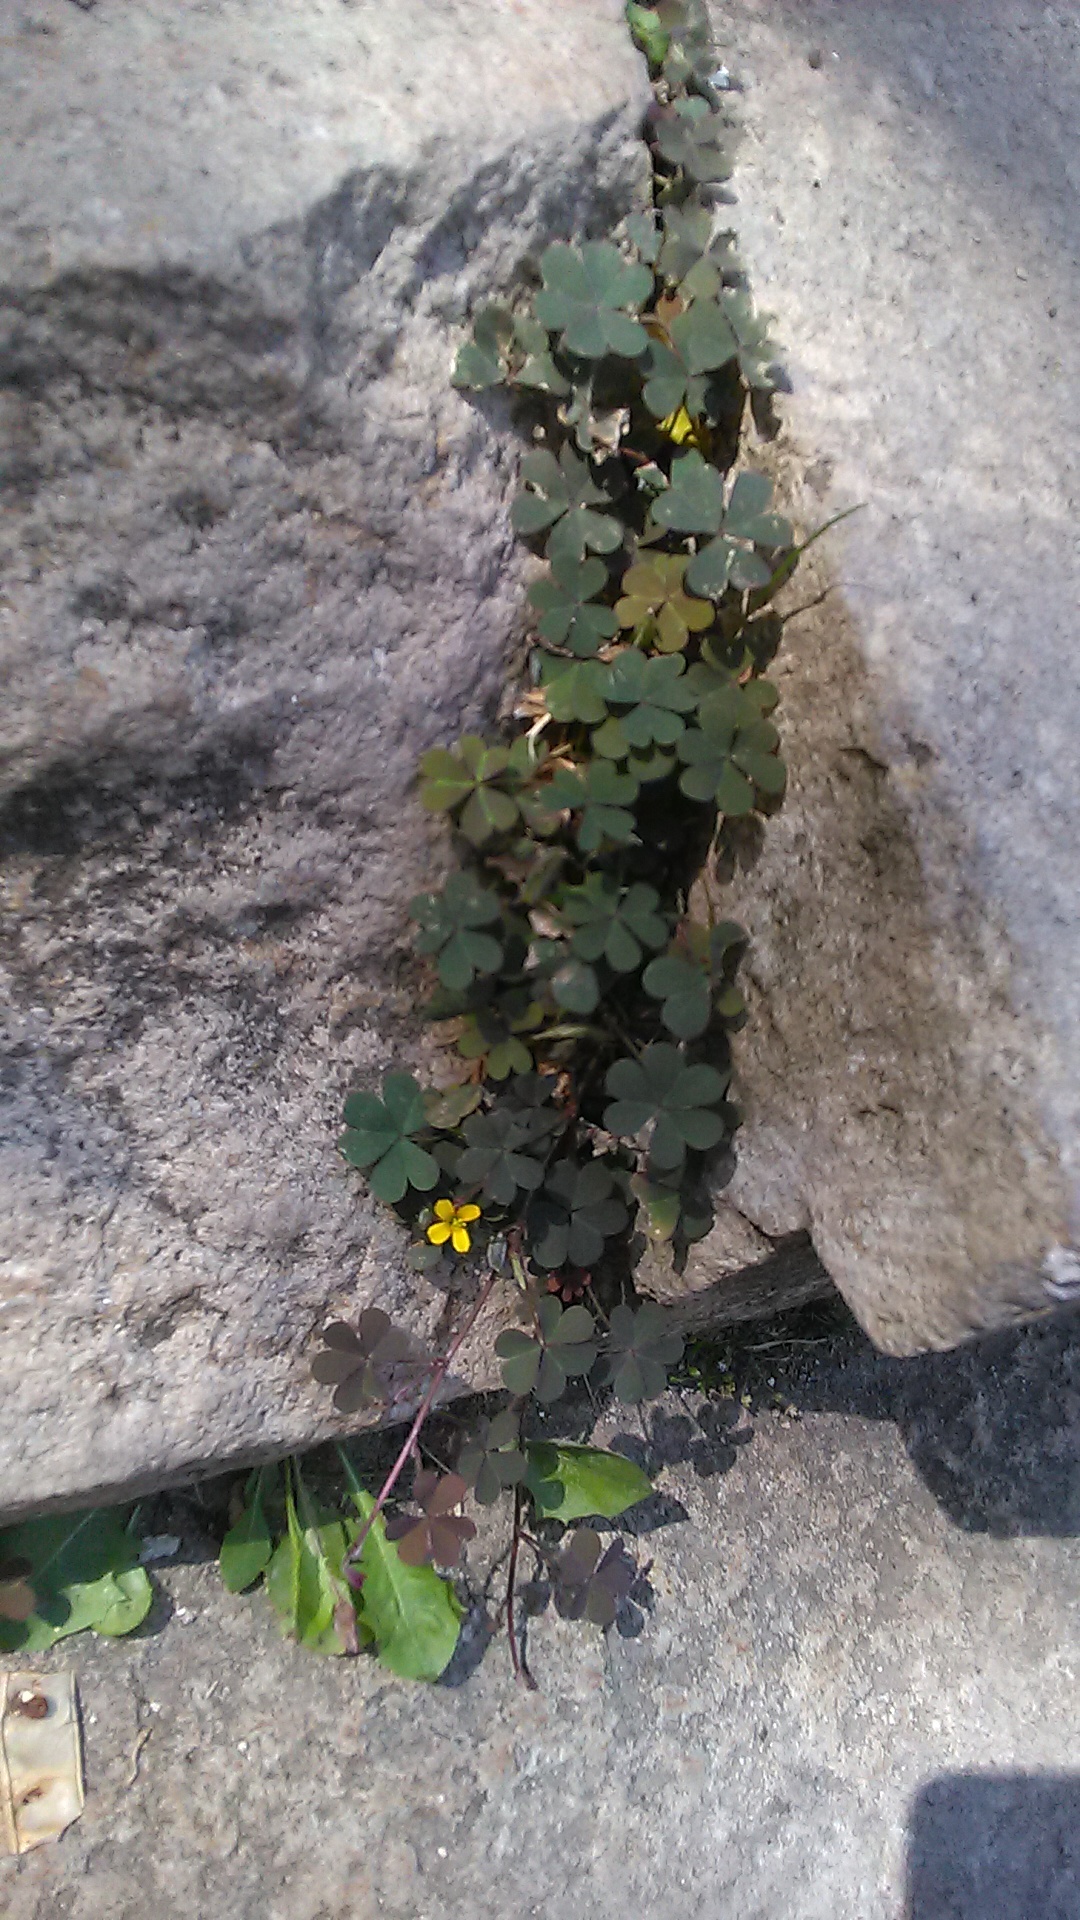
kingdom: Plantae
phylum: Tracheophyta
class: Magnoliopsida
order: Oxalidales
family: Oxalidaceae
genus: Oxalis
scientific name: Oxalis corniculata
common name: Procumbent yellow-sorrel
